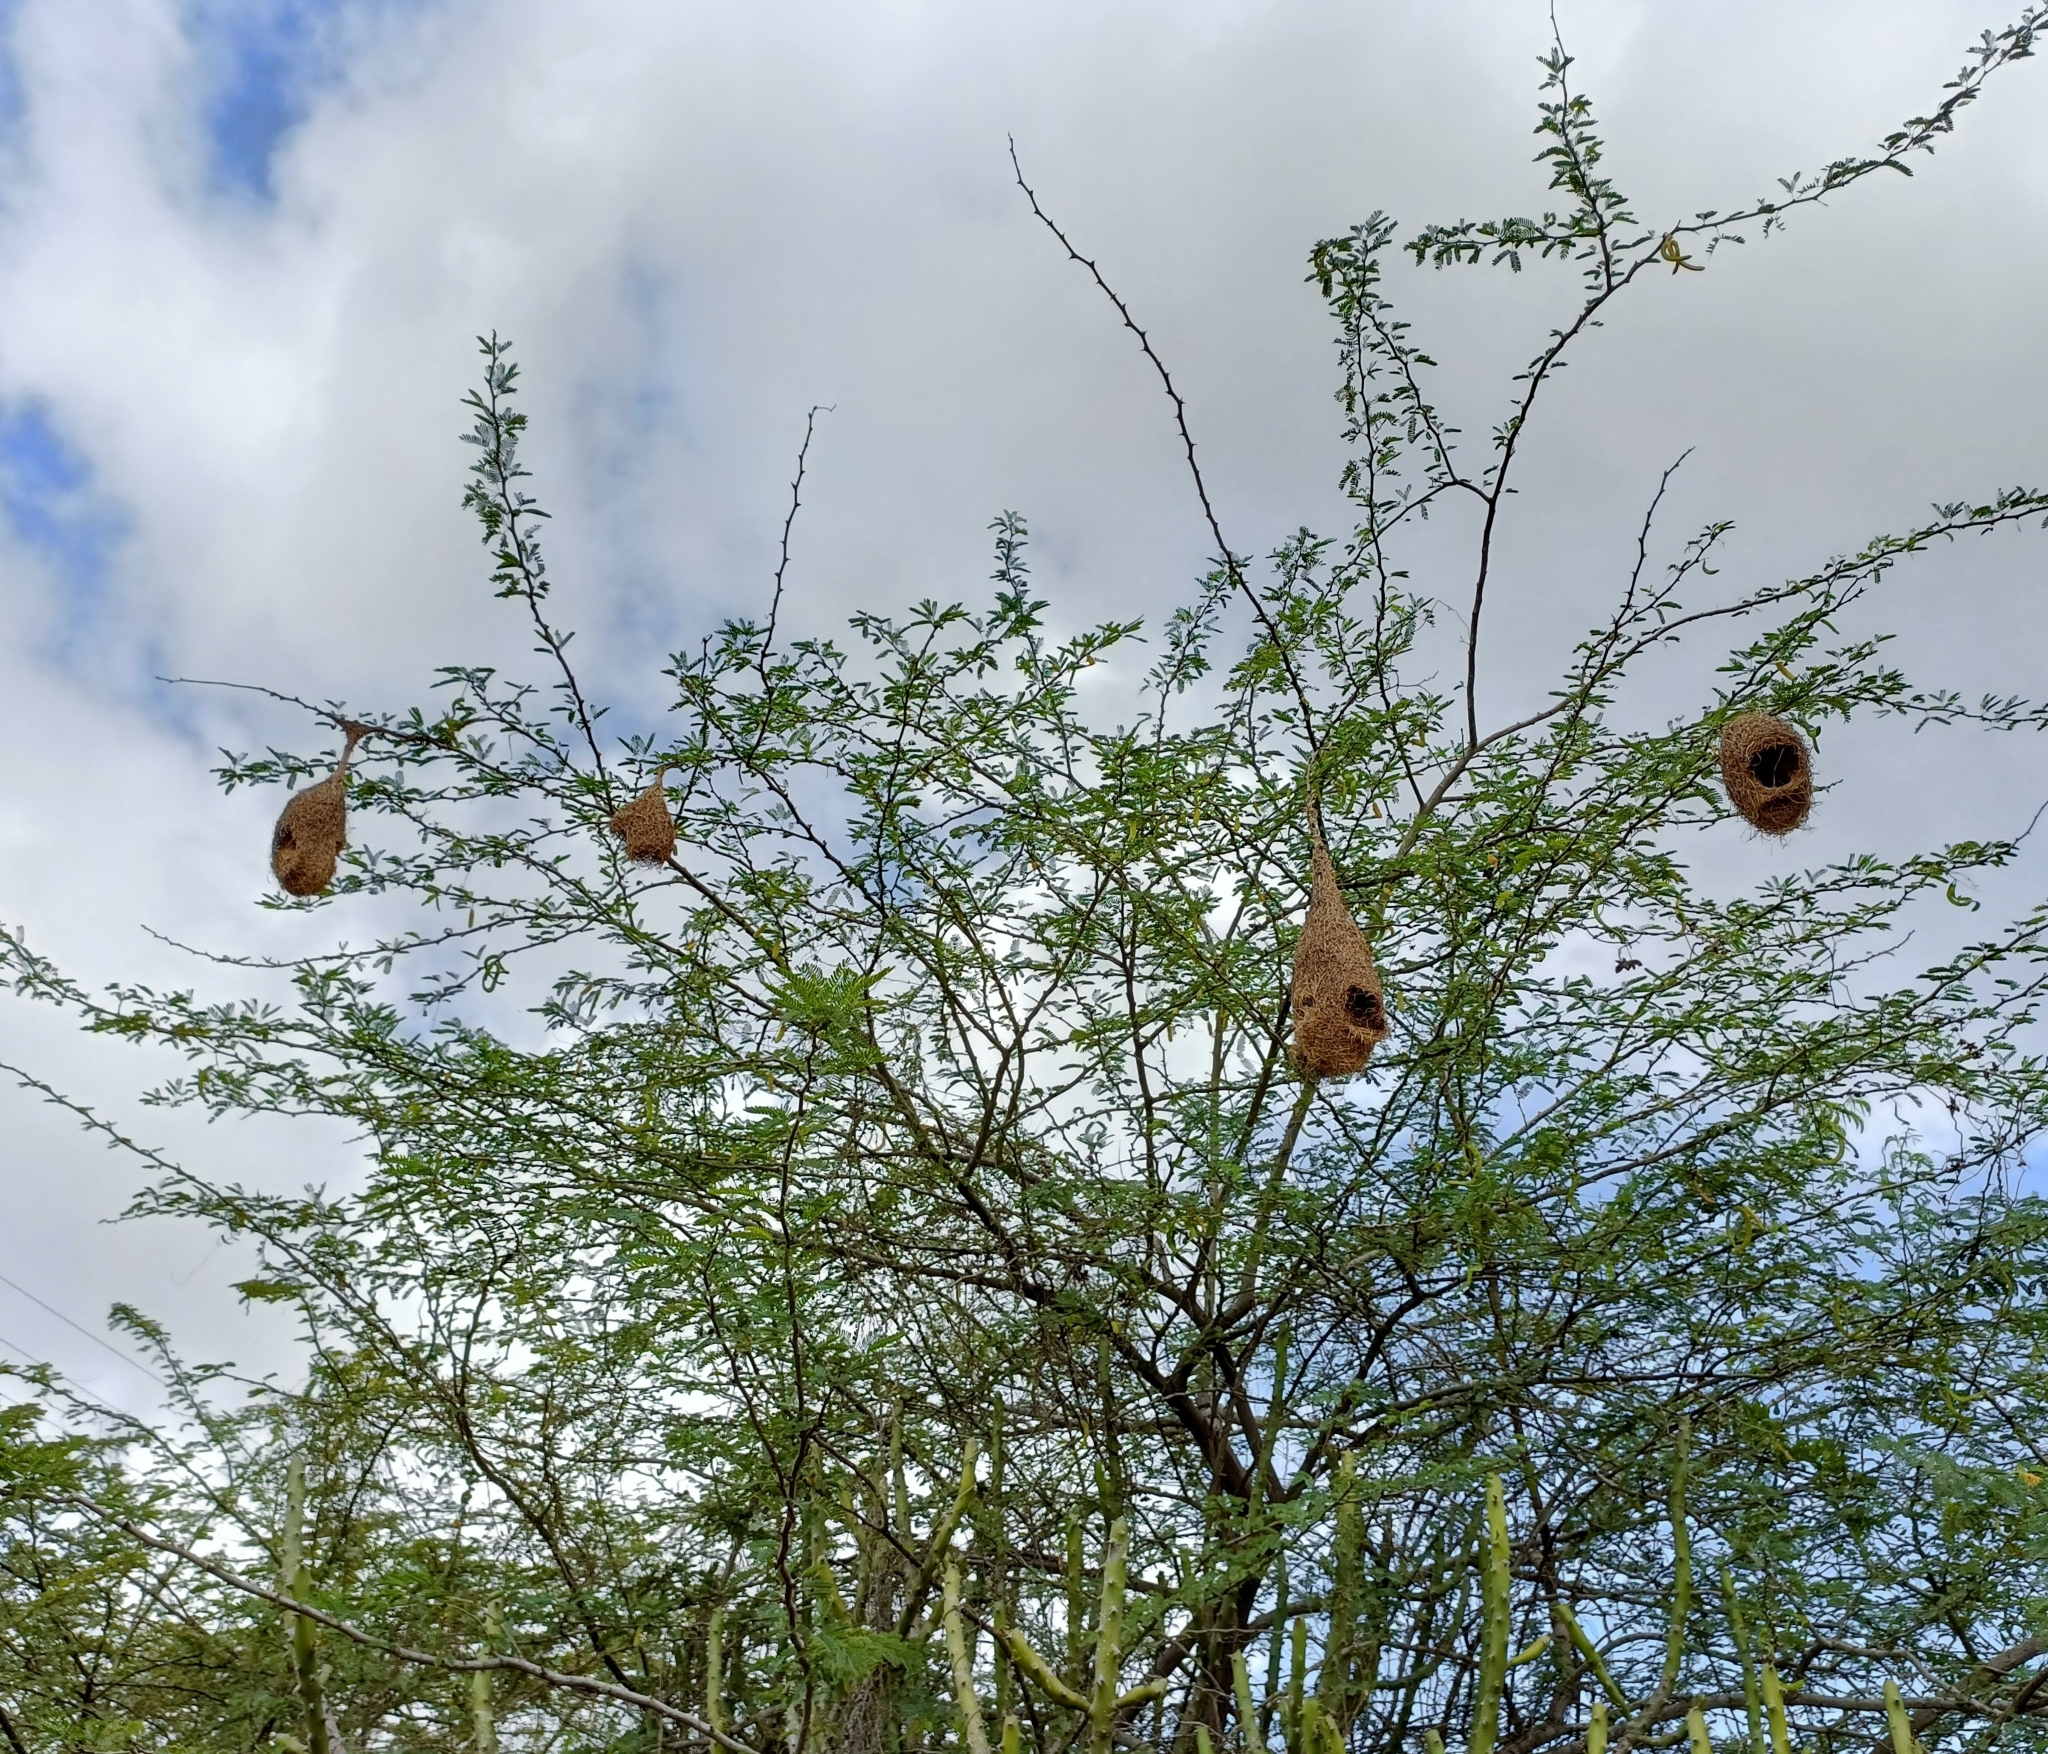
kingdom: Animalia
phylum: Chordata
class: Aves
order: Passeriformes
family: Ploceidae
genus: Ploceus
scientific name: Ploceus philippinus
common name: Baya weaver
